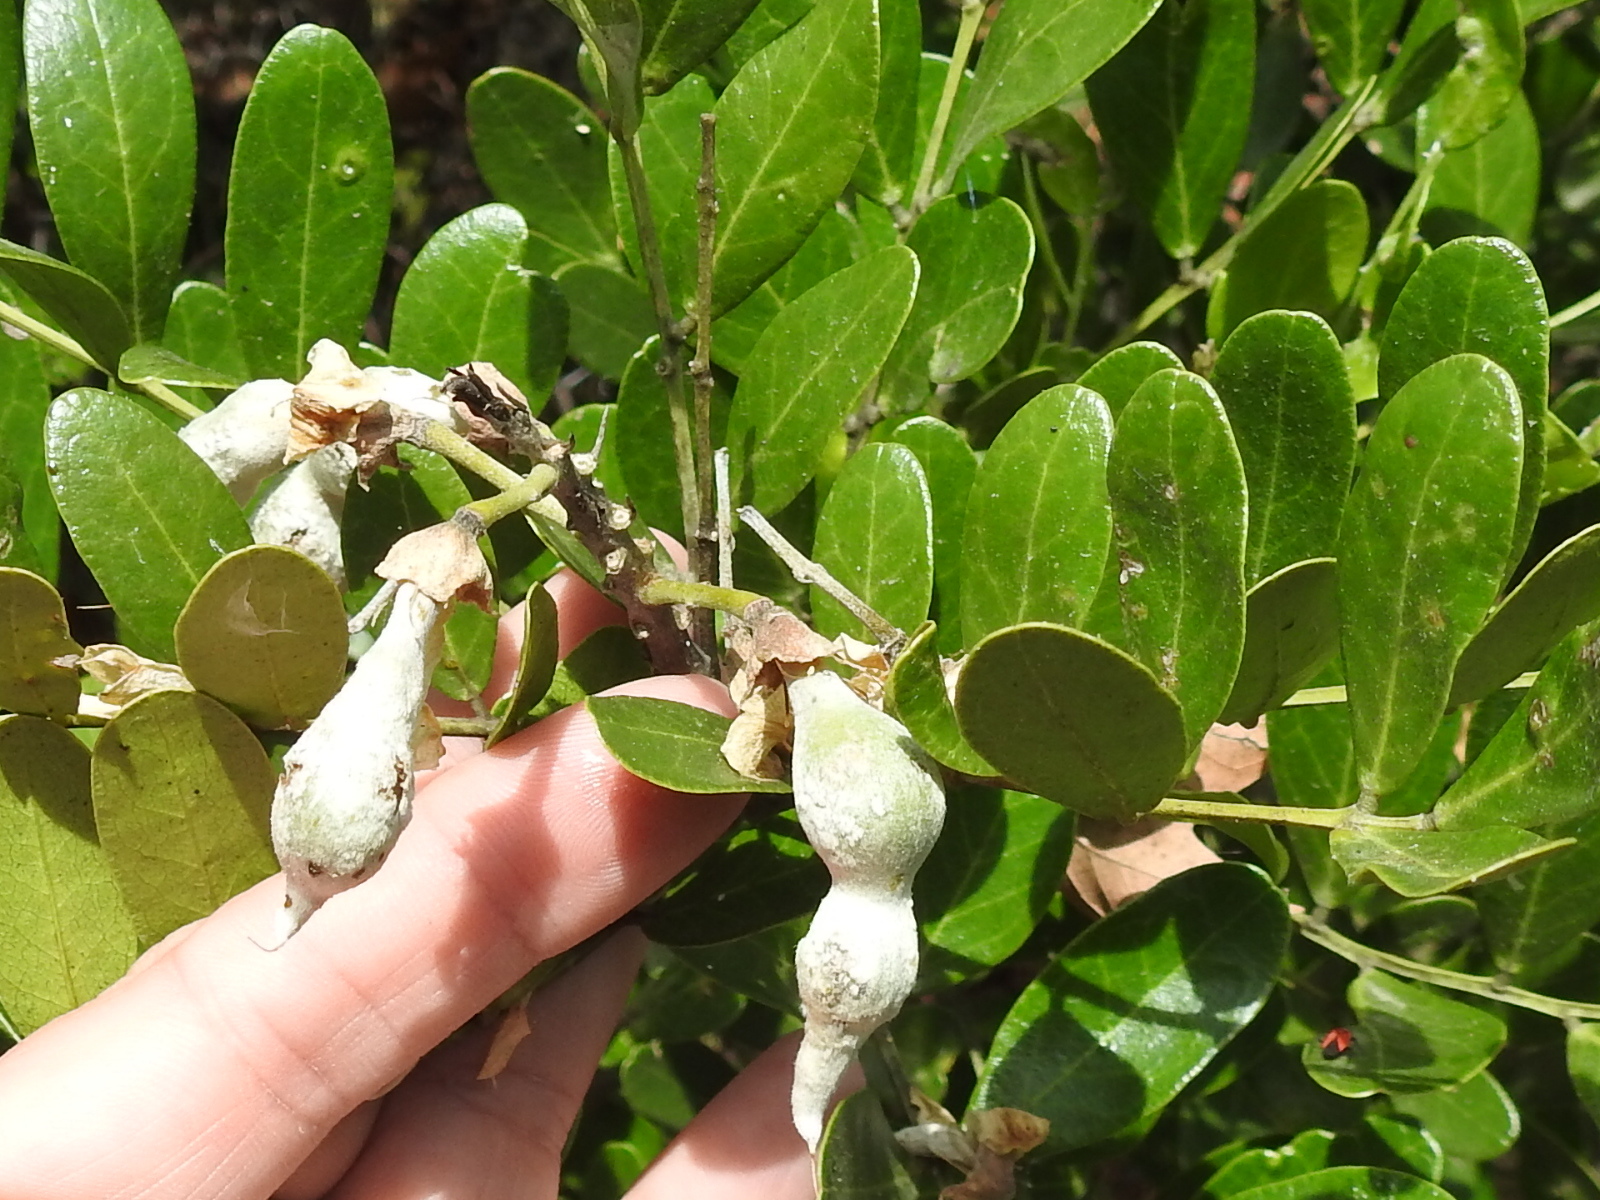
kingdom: Plantae
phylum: Tracheophyta
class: Magnoliopsida
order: Fabales
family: Fabaceae
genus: Dermatophyllum
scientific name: Dermatophyllum secundiflorum
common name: Texas-mountain-laurel
